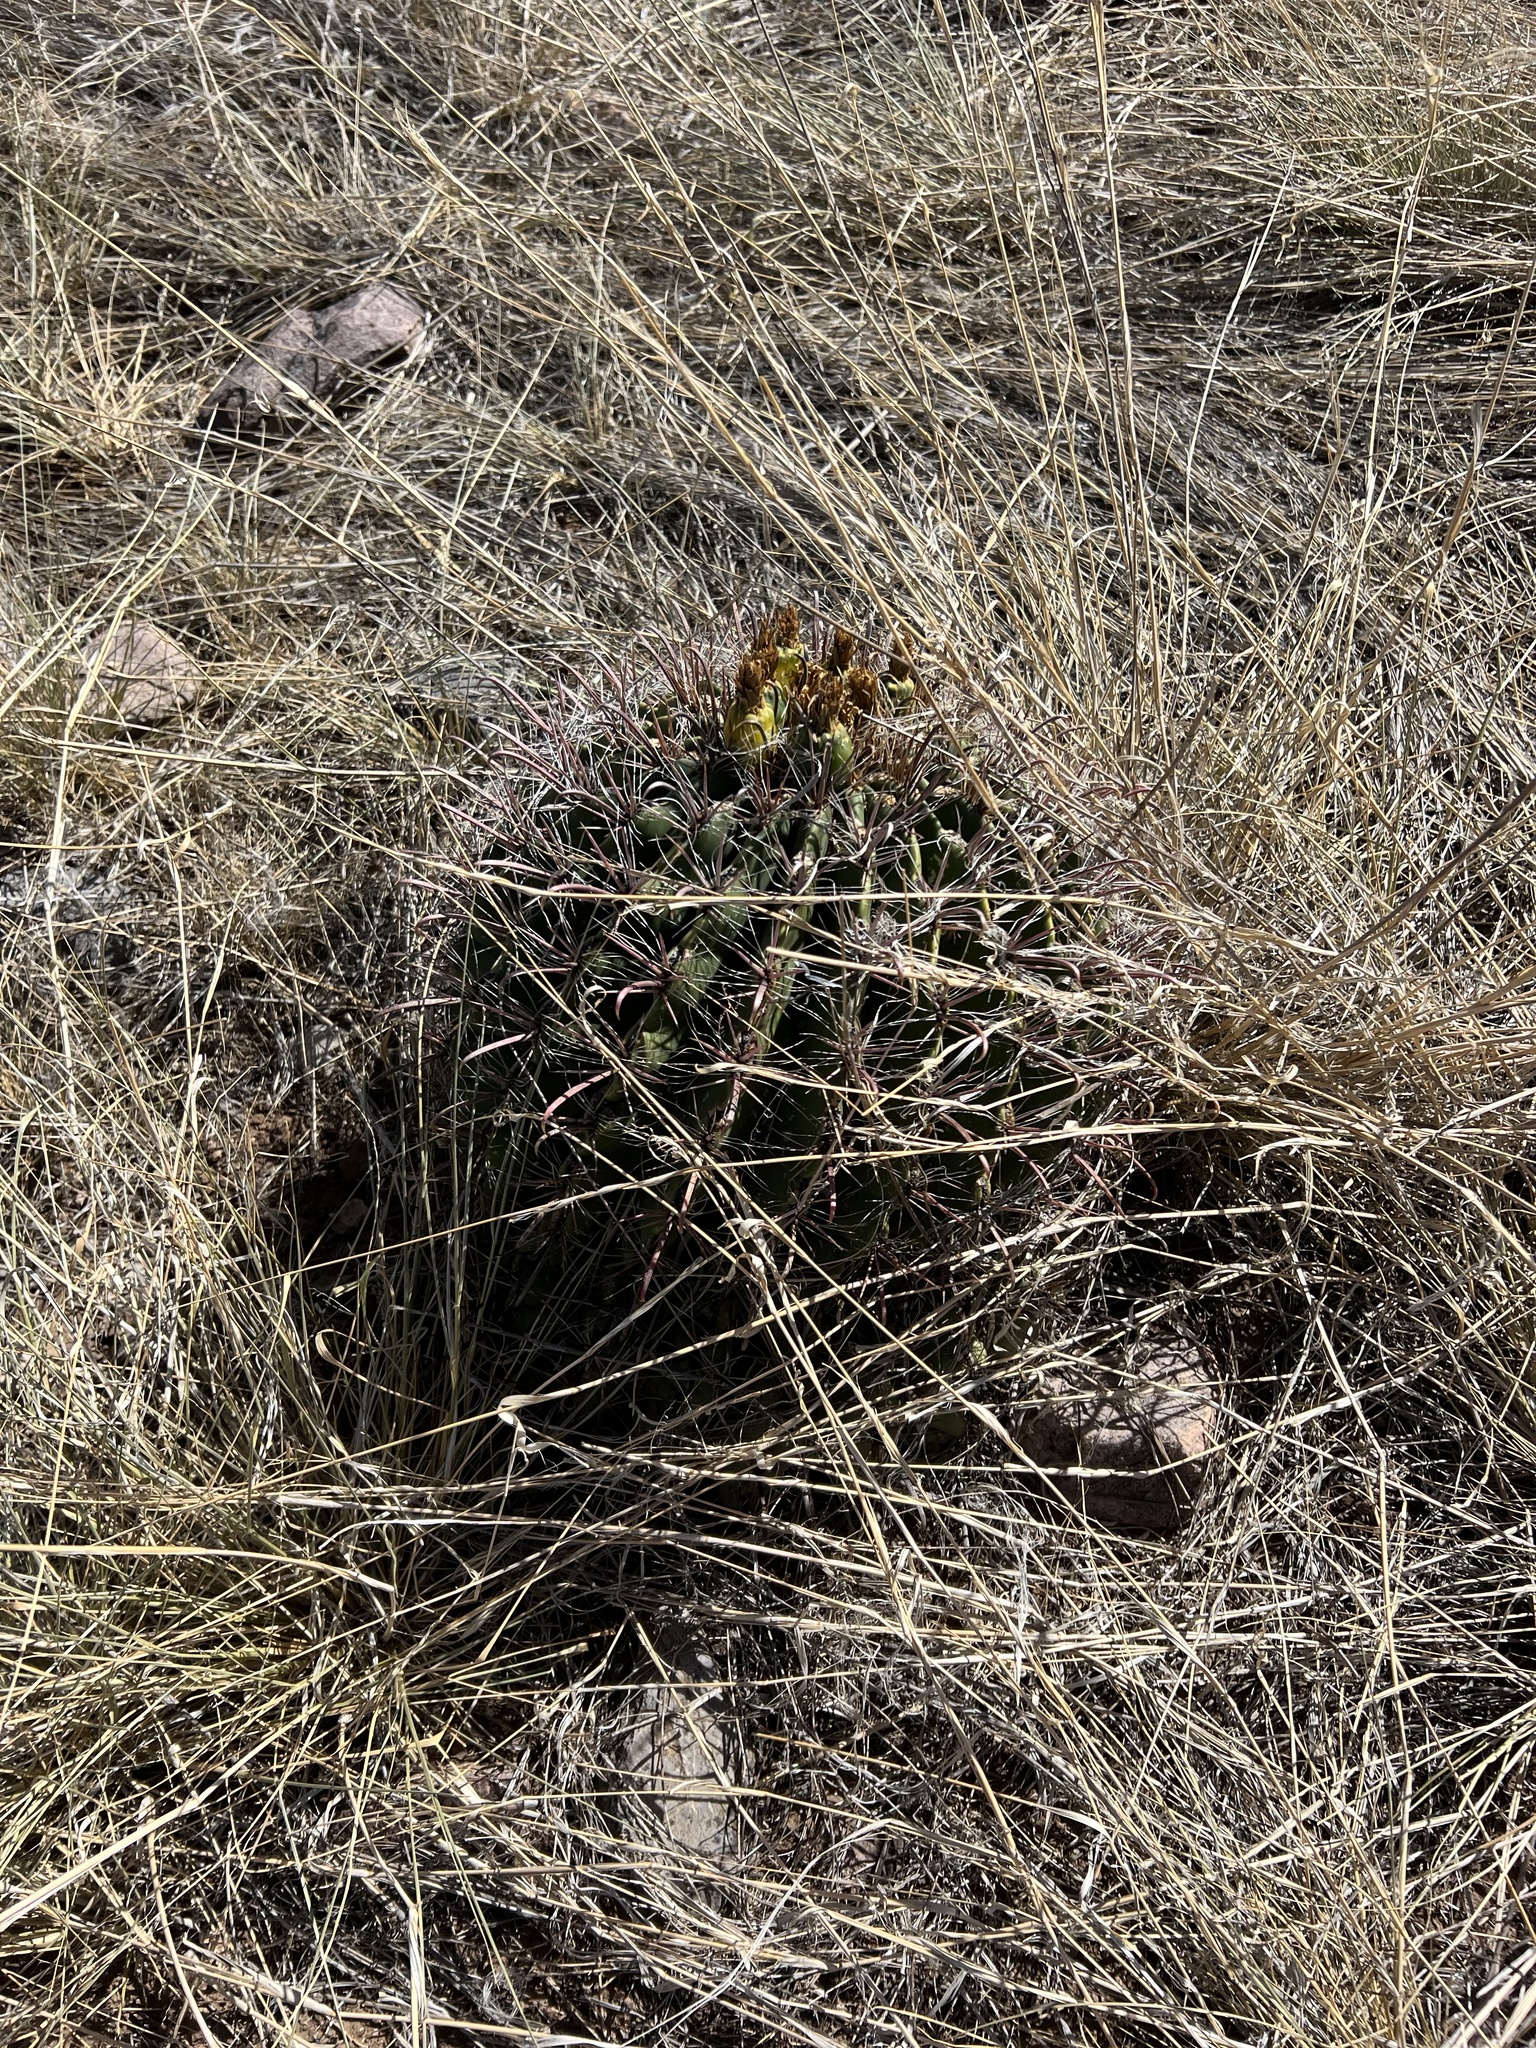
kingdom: Plantae
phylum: Tracheophyta
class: Magnoliopsida
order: Caryophyllales
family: Cactaceae
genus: Ferocactus
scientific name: Ferocactus wislizeni
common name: Candy barrel cactus
